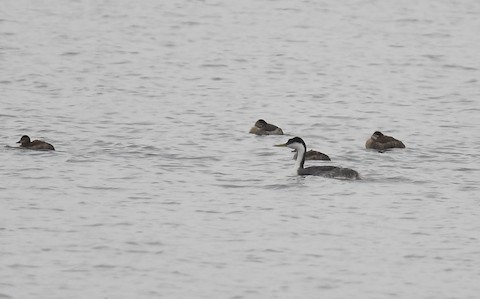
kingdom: Animalia
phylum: Chordata
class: Aves
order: Podicipediformes
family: Podicipedidae
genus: Aechmophorus
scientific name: Aechmophorus occidentalis
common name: Western grebe
